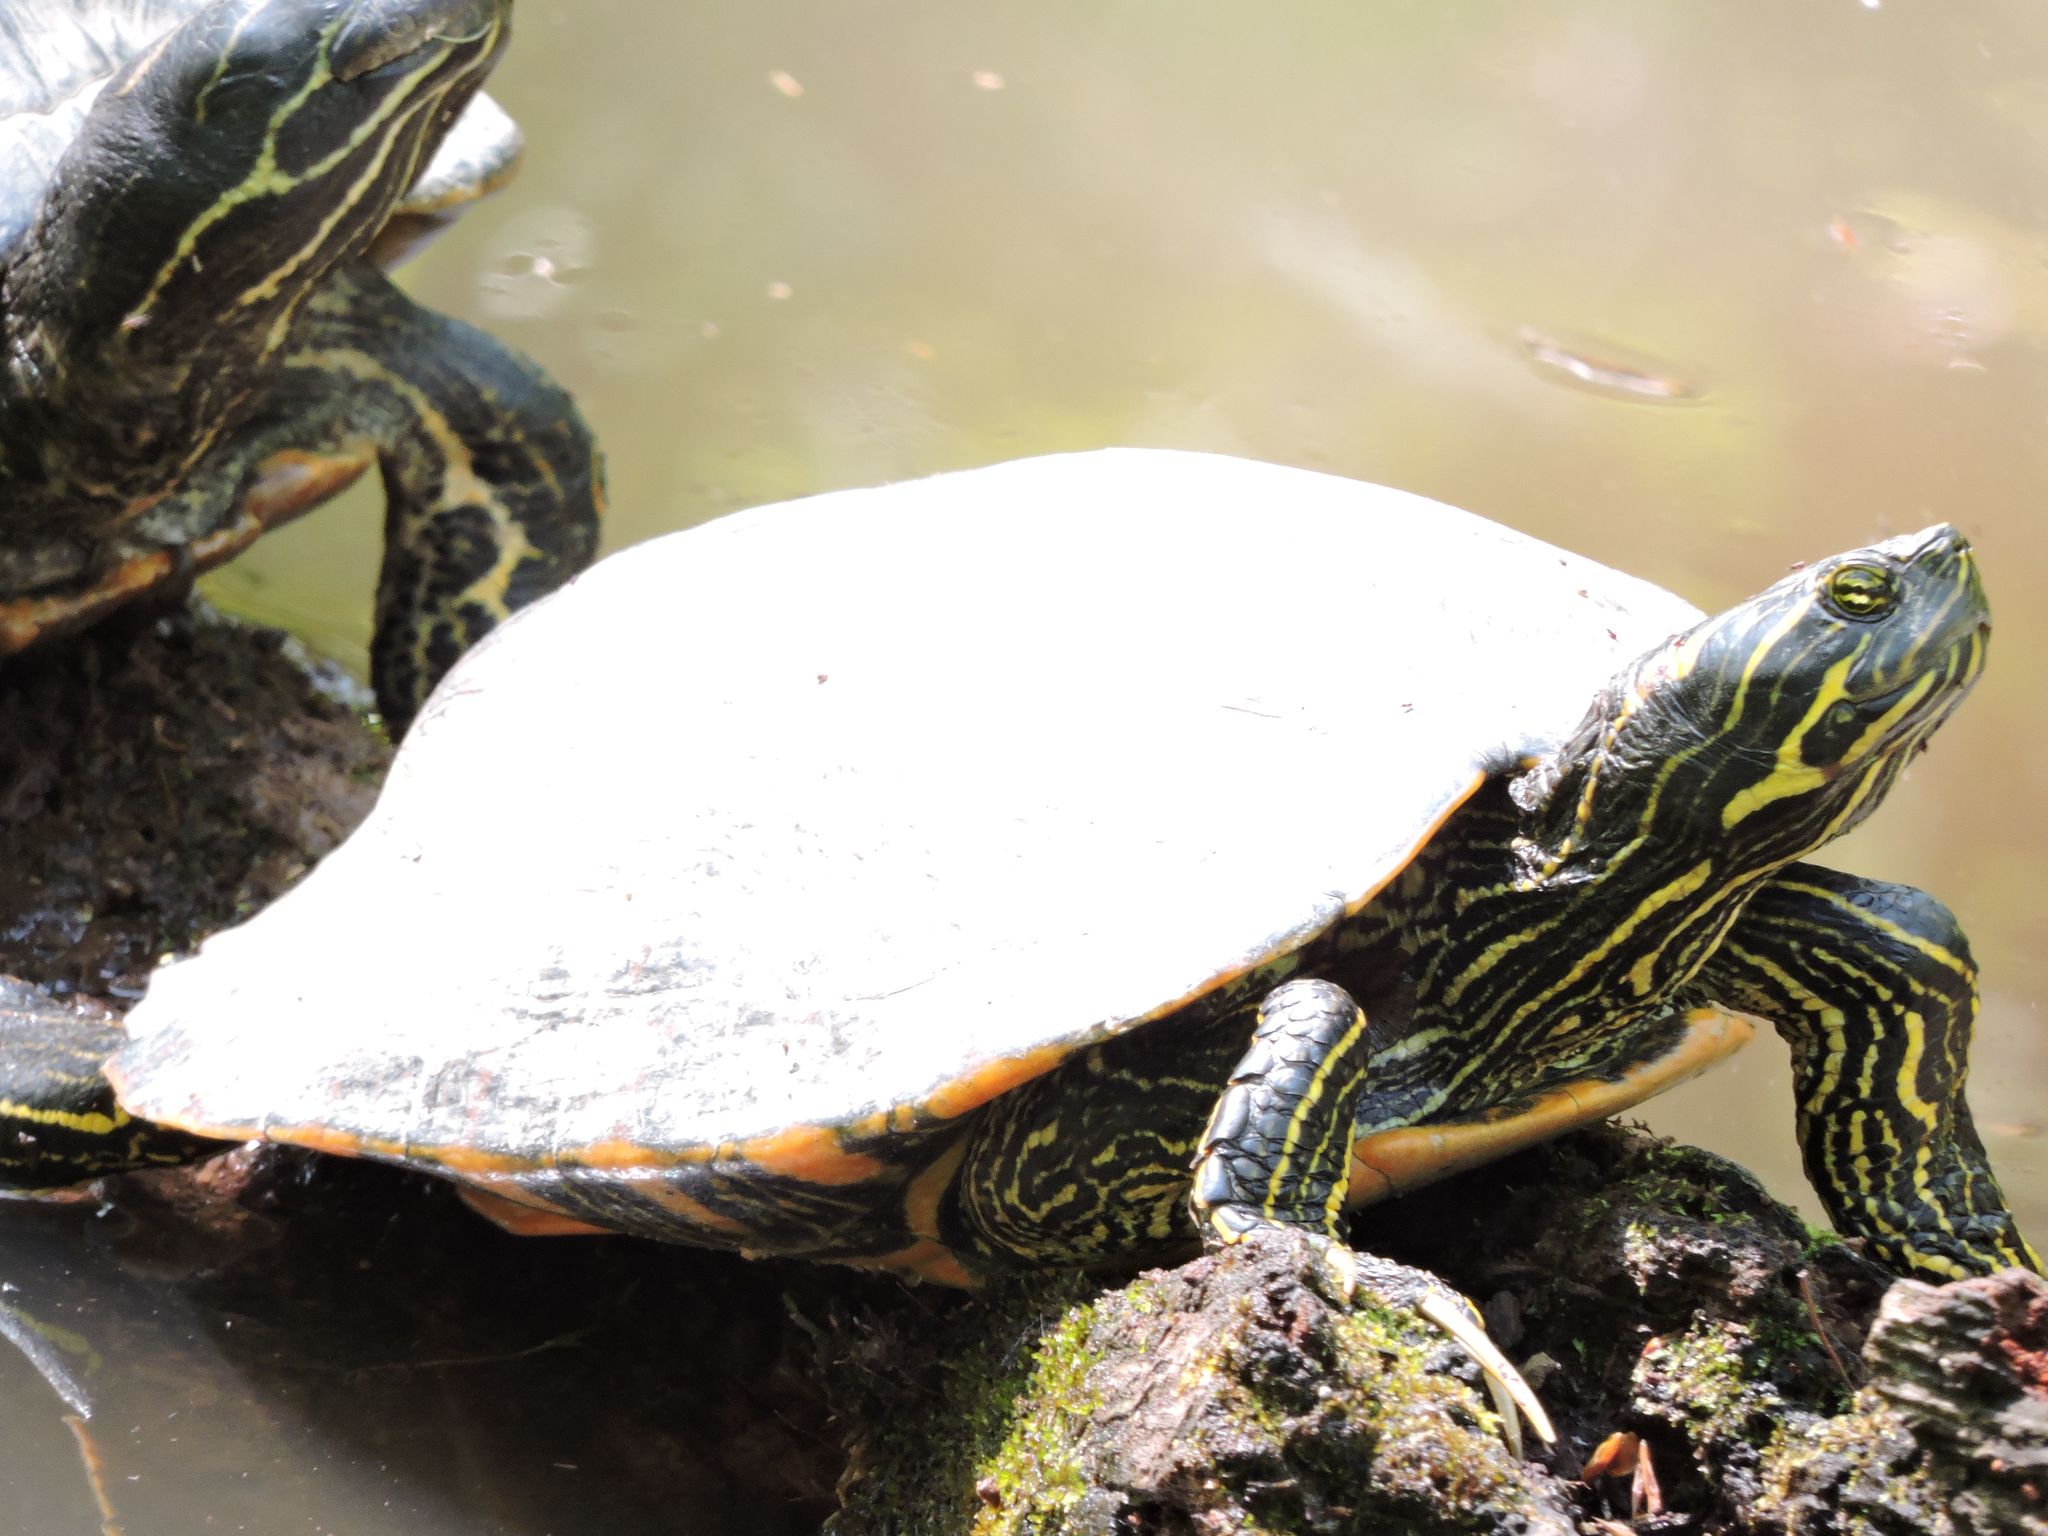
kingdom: Animalia
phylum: Chordata
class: Testudines
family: Emydidae
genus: Pseudemys
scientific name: Pseudemys concinna
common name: Eastern river cooter
